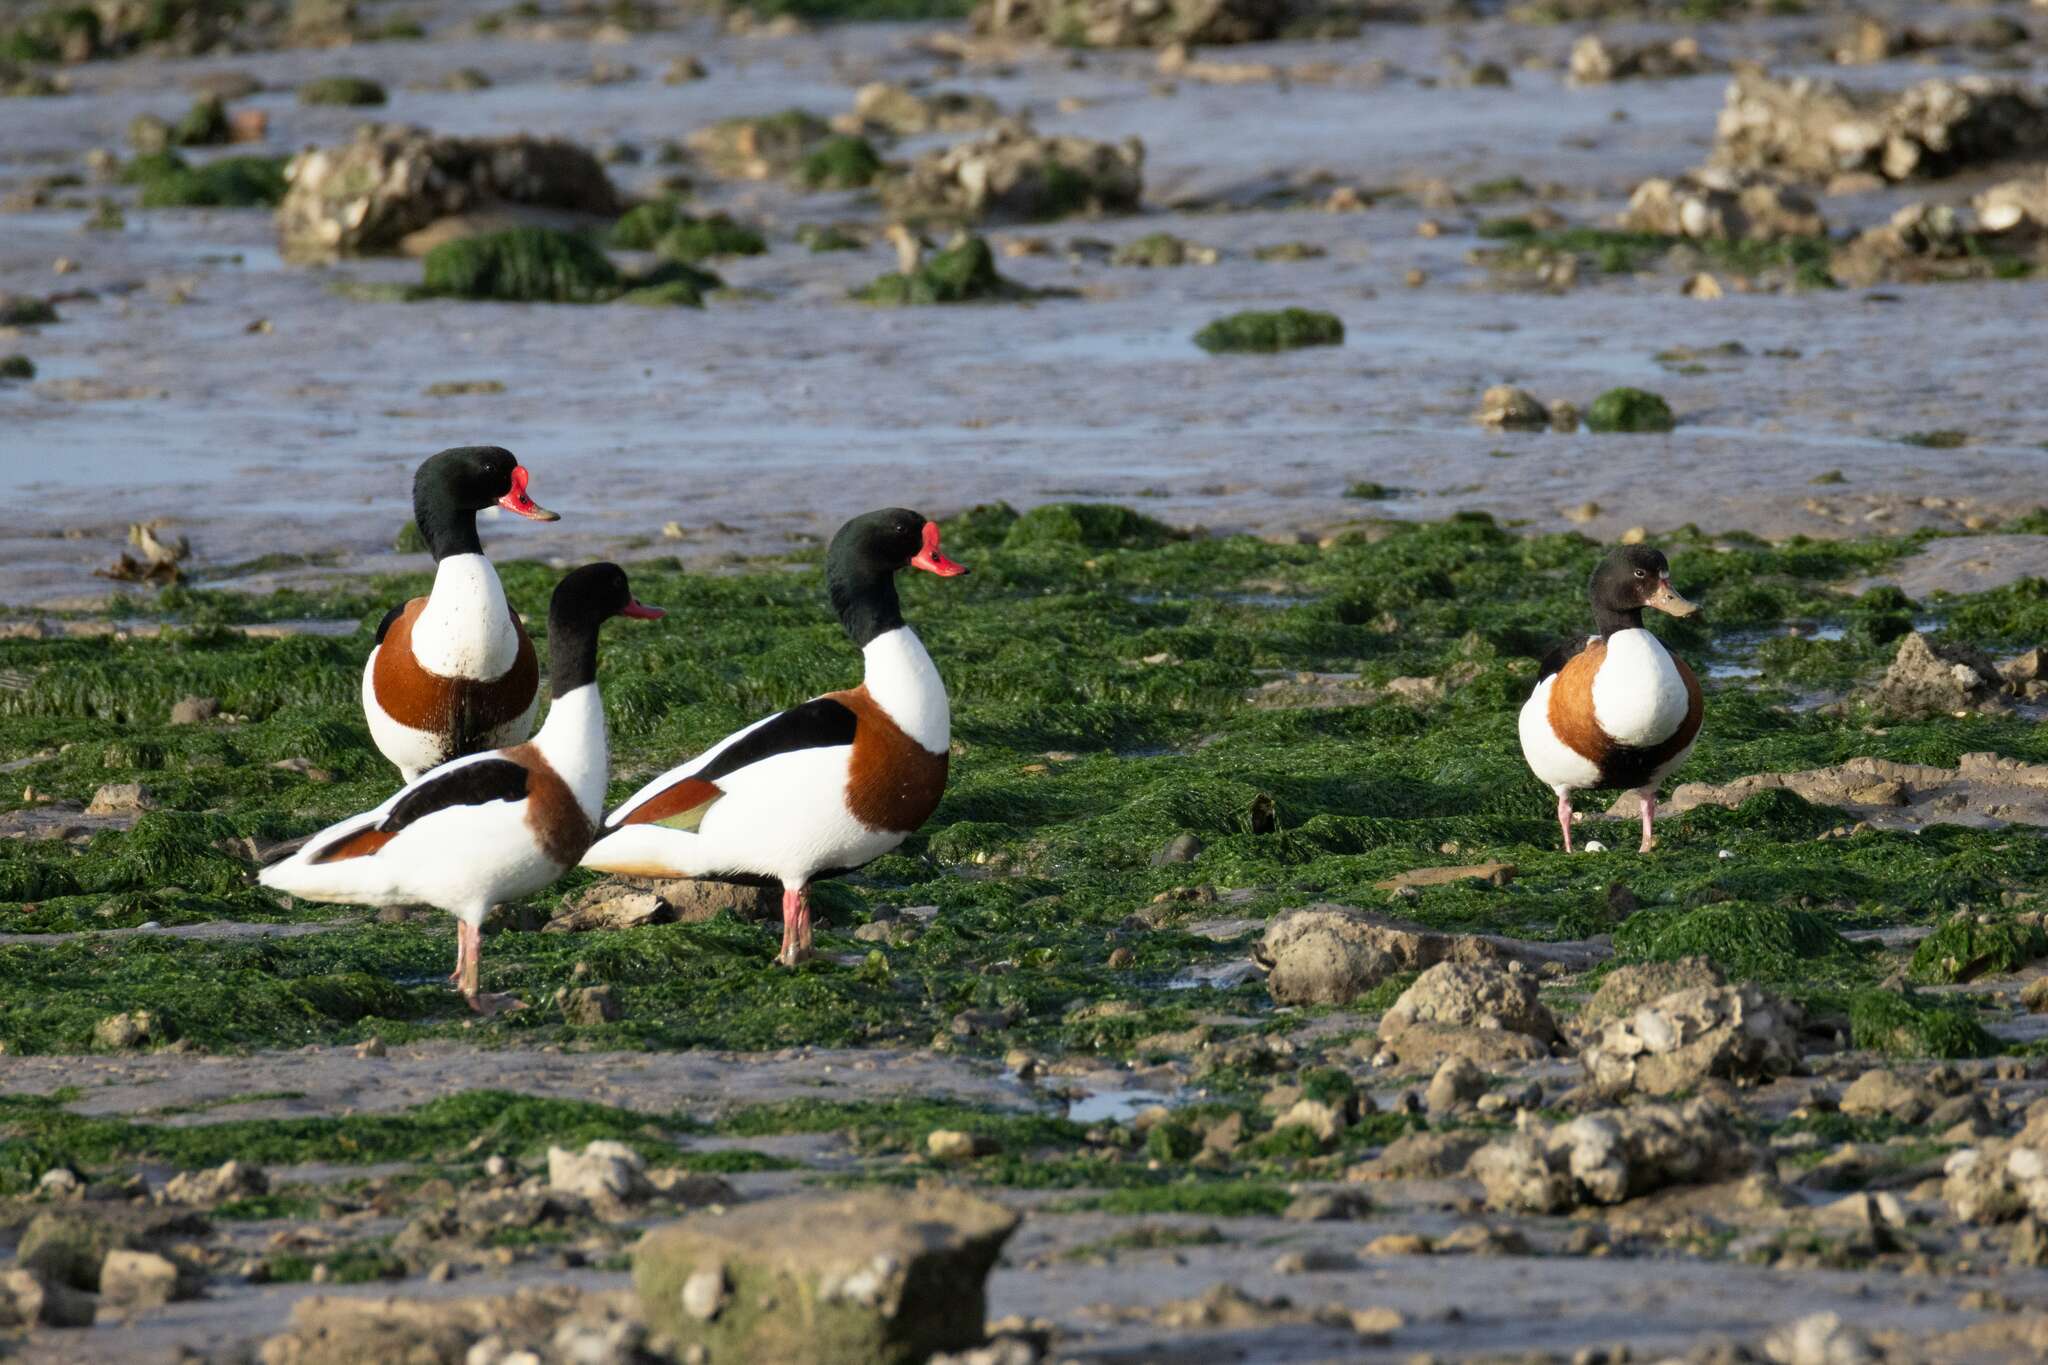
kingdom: Animalia
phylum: Chordata
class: Aves
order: Anseriformes
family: Anatidae
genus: Tadorna
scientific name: Tadorna tadorna
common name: Common shelduck
